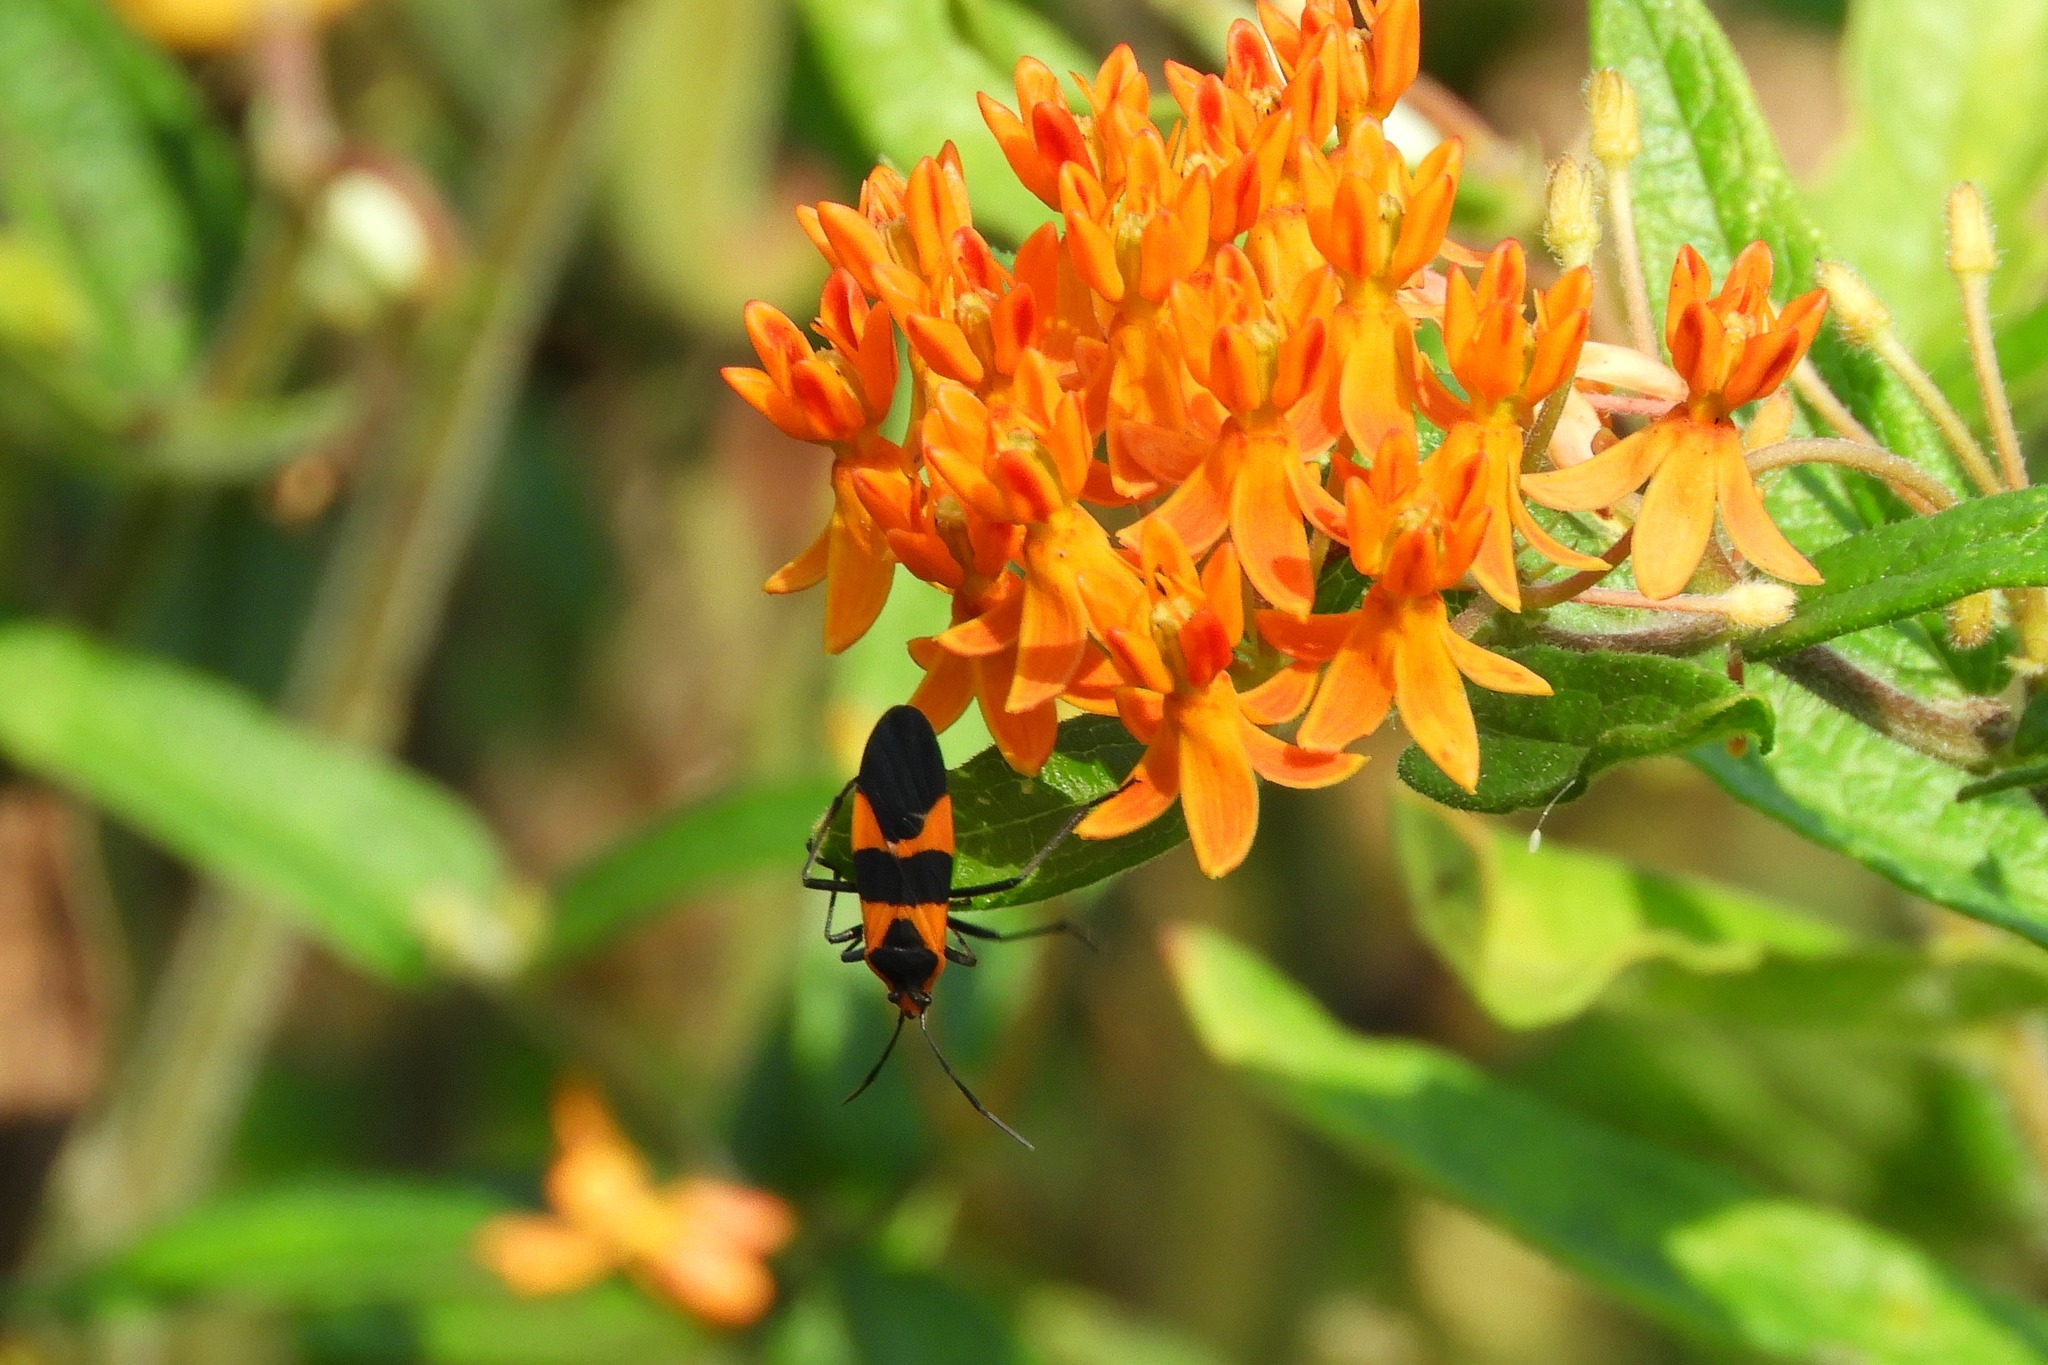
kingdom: Animalia
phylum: Arthropoda
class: Insecta
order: Hemiptera
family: Lygaeidae
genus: Oncopeltus
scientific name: Oncopeltus fasciatus
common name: Large milkweed bug
